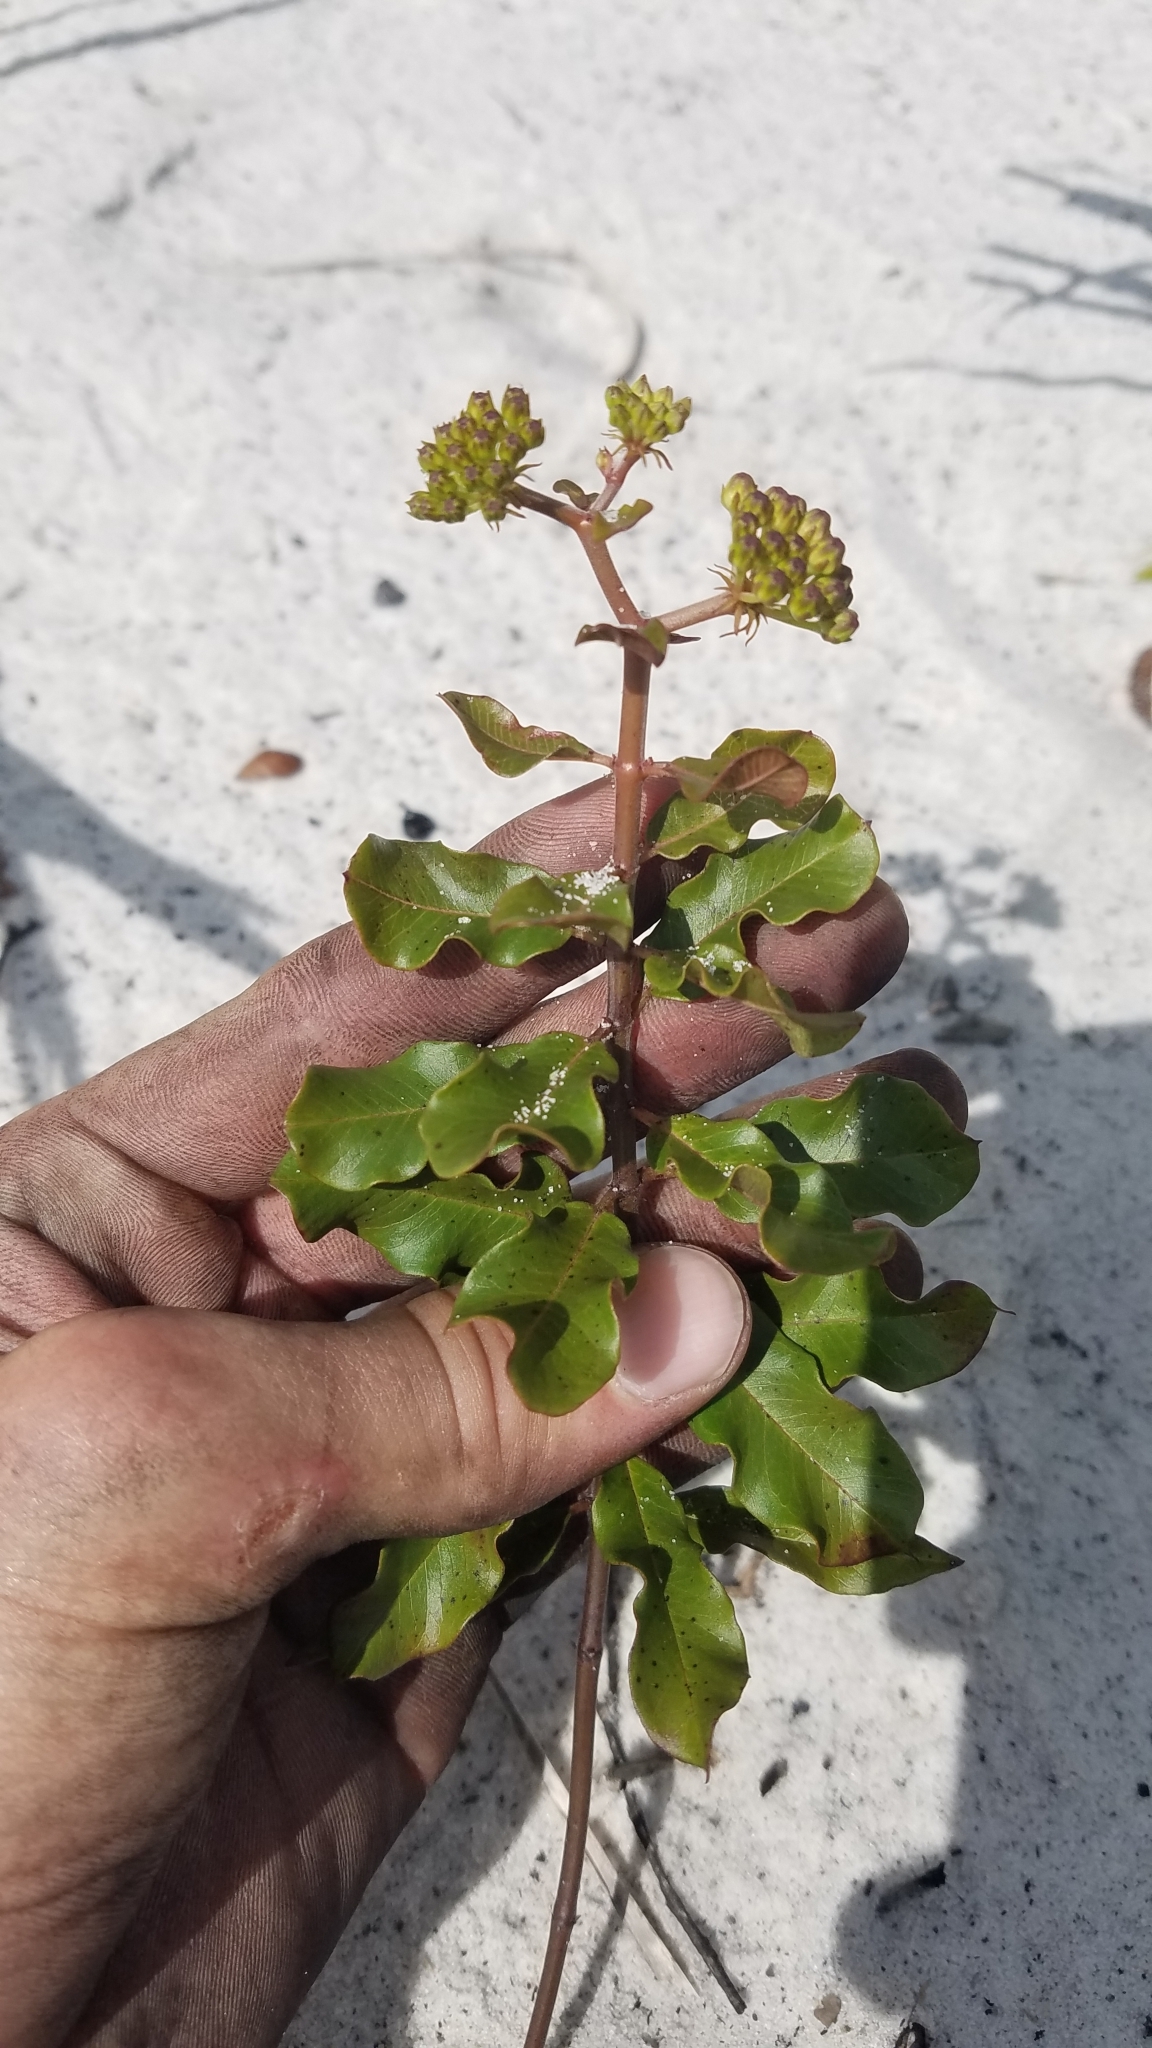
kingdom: Plantae
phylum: Tracheophyta
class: Magnoliopsida
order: Gentianales
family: Apocynaceae
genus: Asclepias
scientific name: Asclepias curtissii
